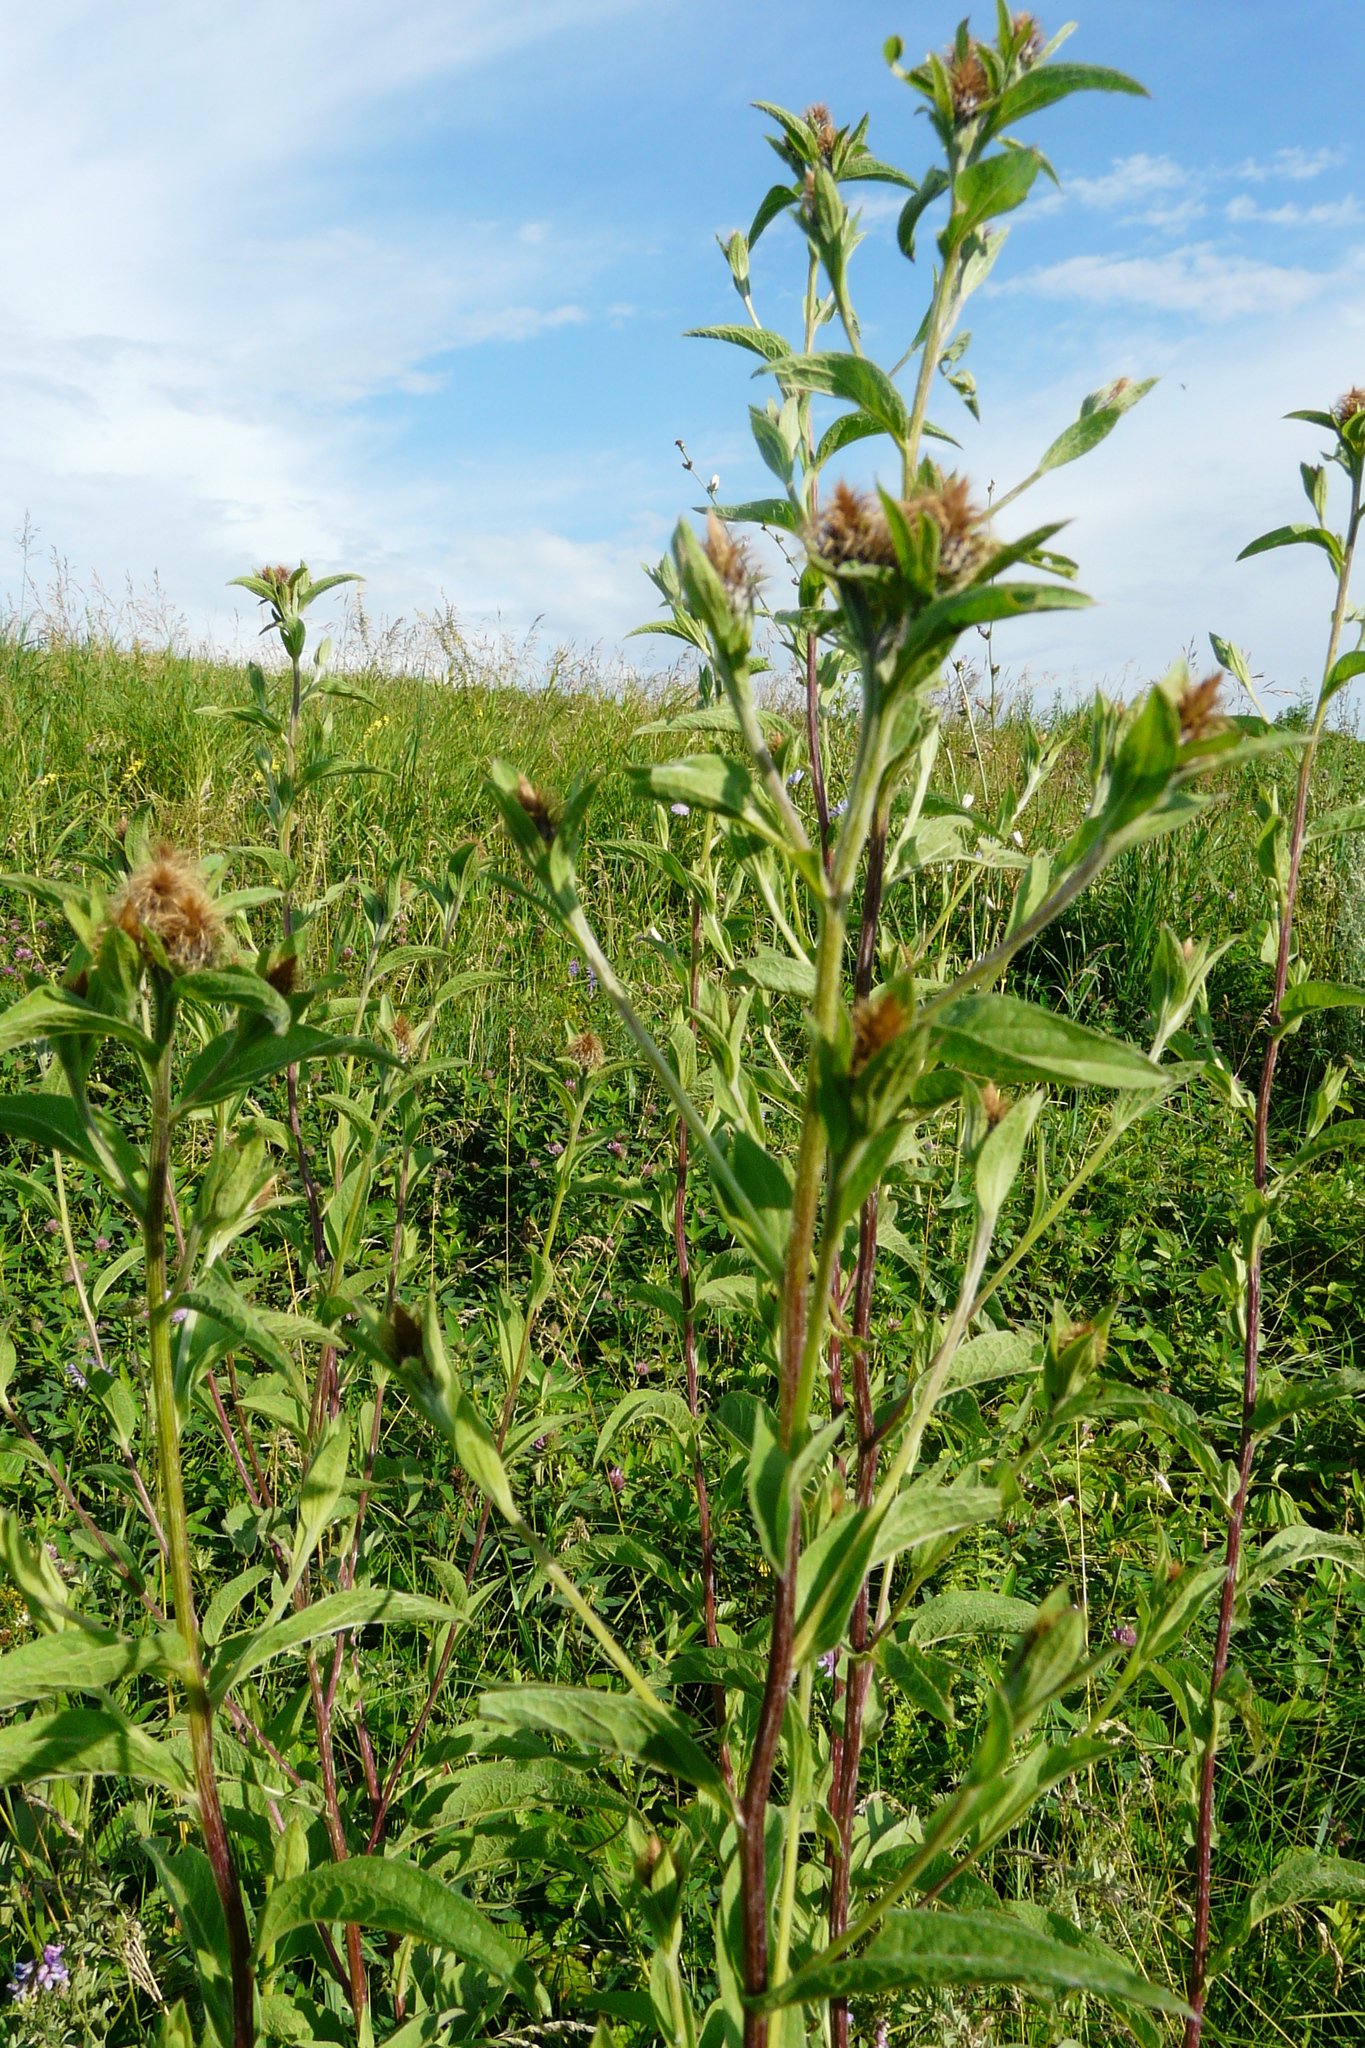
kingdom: Plantae
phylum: Tracheophyta
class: Magnoliopsida
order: Asterales
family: Asteraceae
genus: Centaurea
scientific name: Centaurea pseudophrygia
